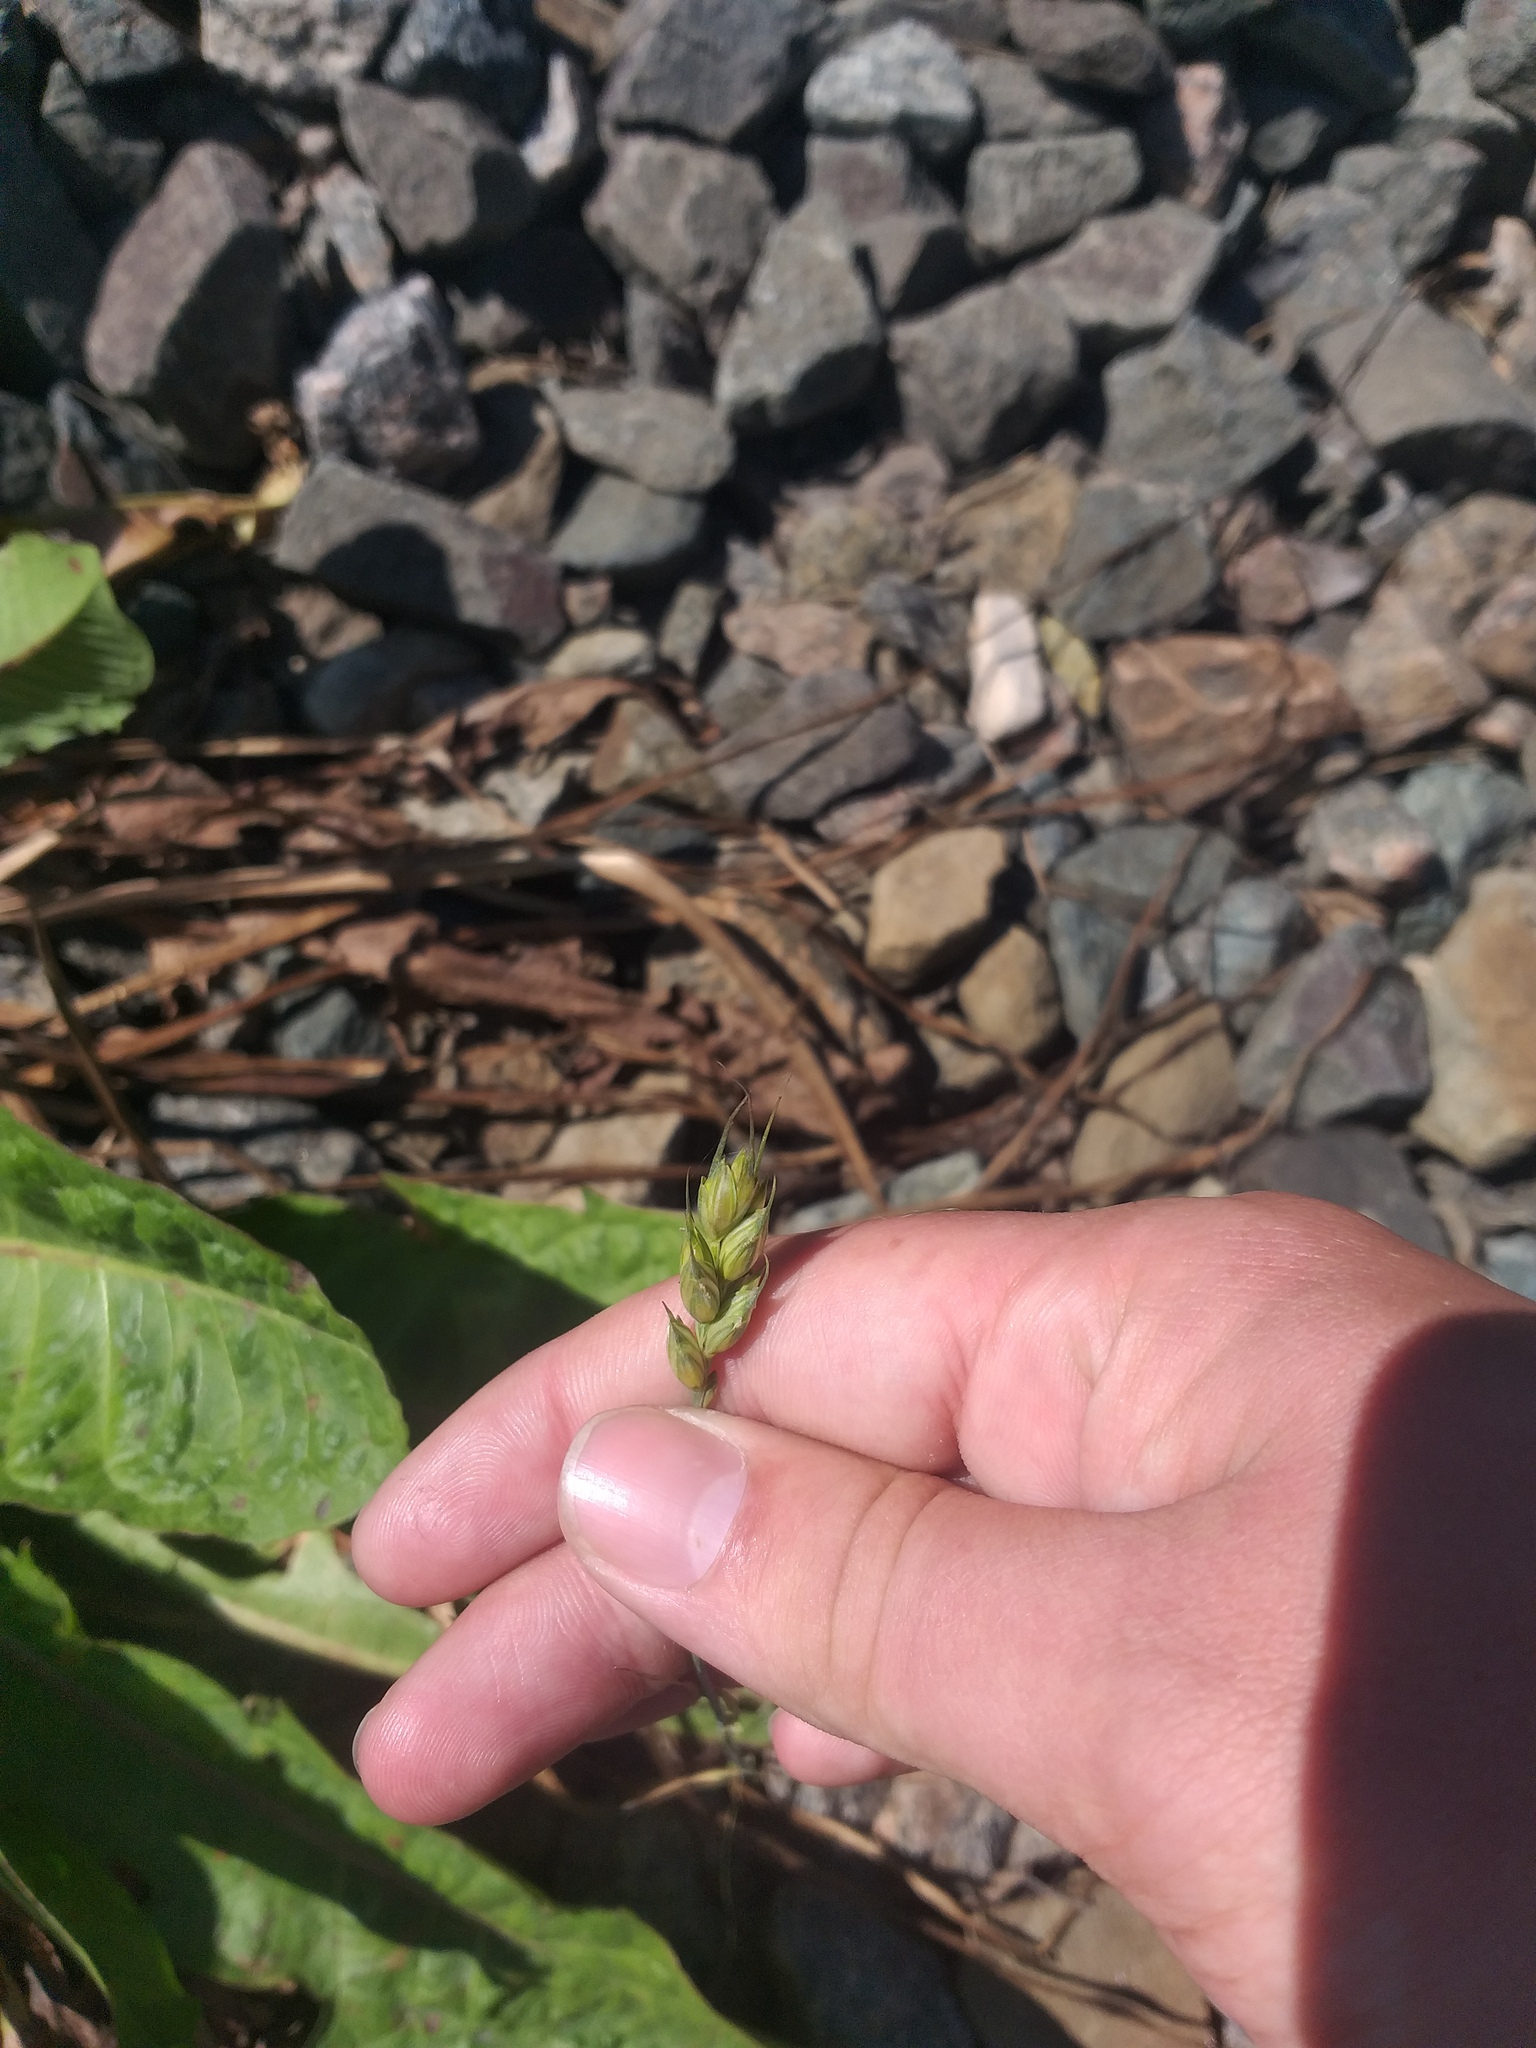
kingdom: Plantae
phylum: Tracheophyta
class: Liliopsida
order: Poales
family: Poaceae
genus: Triticum
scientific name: Triticum aestivum
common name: Common wheat
